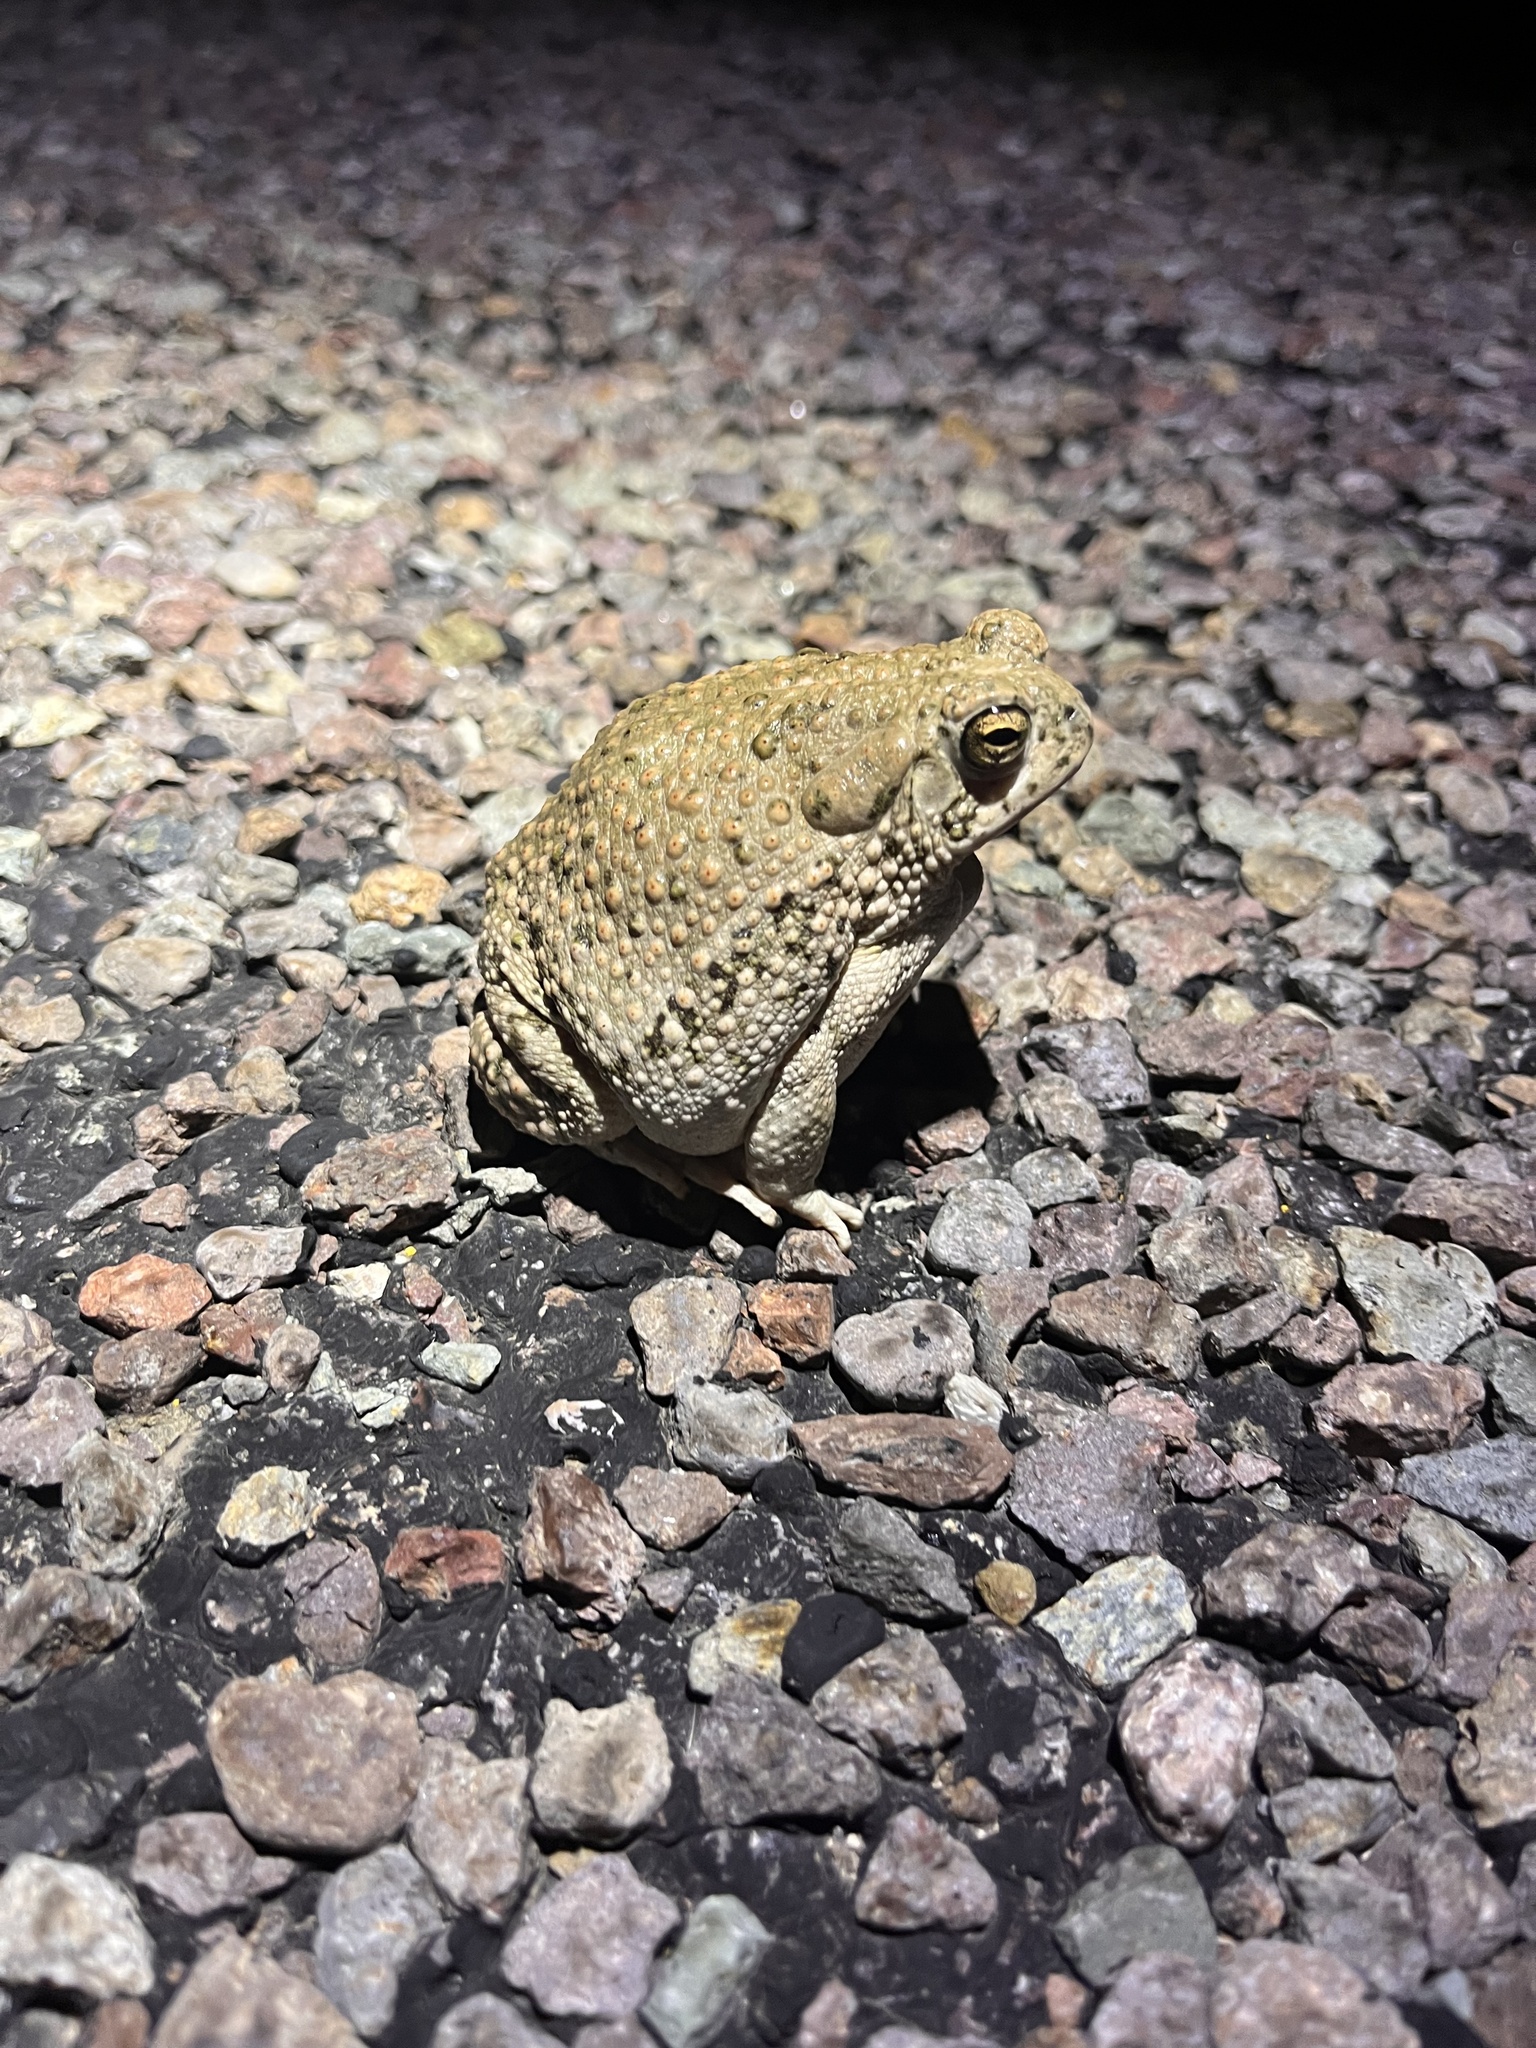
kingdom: Animalia
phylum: Chordata
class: Amphibia
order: Anura
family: Bufonidae
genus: Anaxyrus
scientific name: Anaxyrus speciosus
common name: Texas toad
